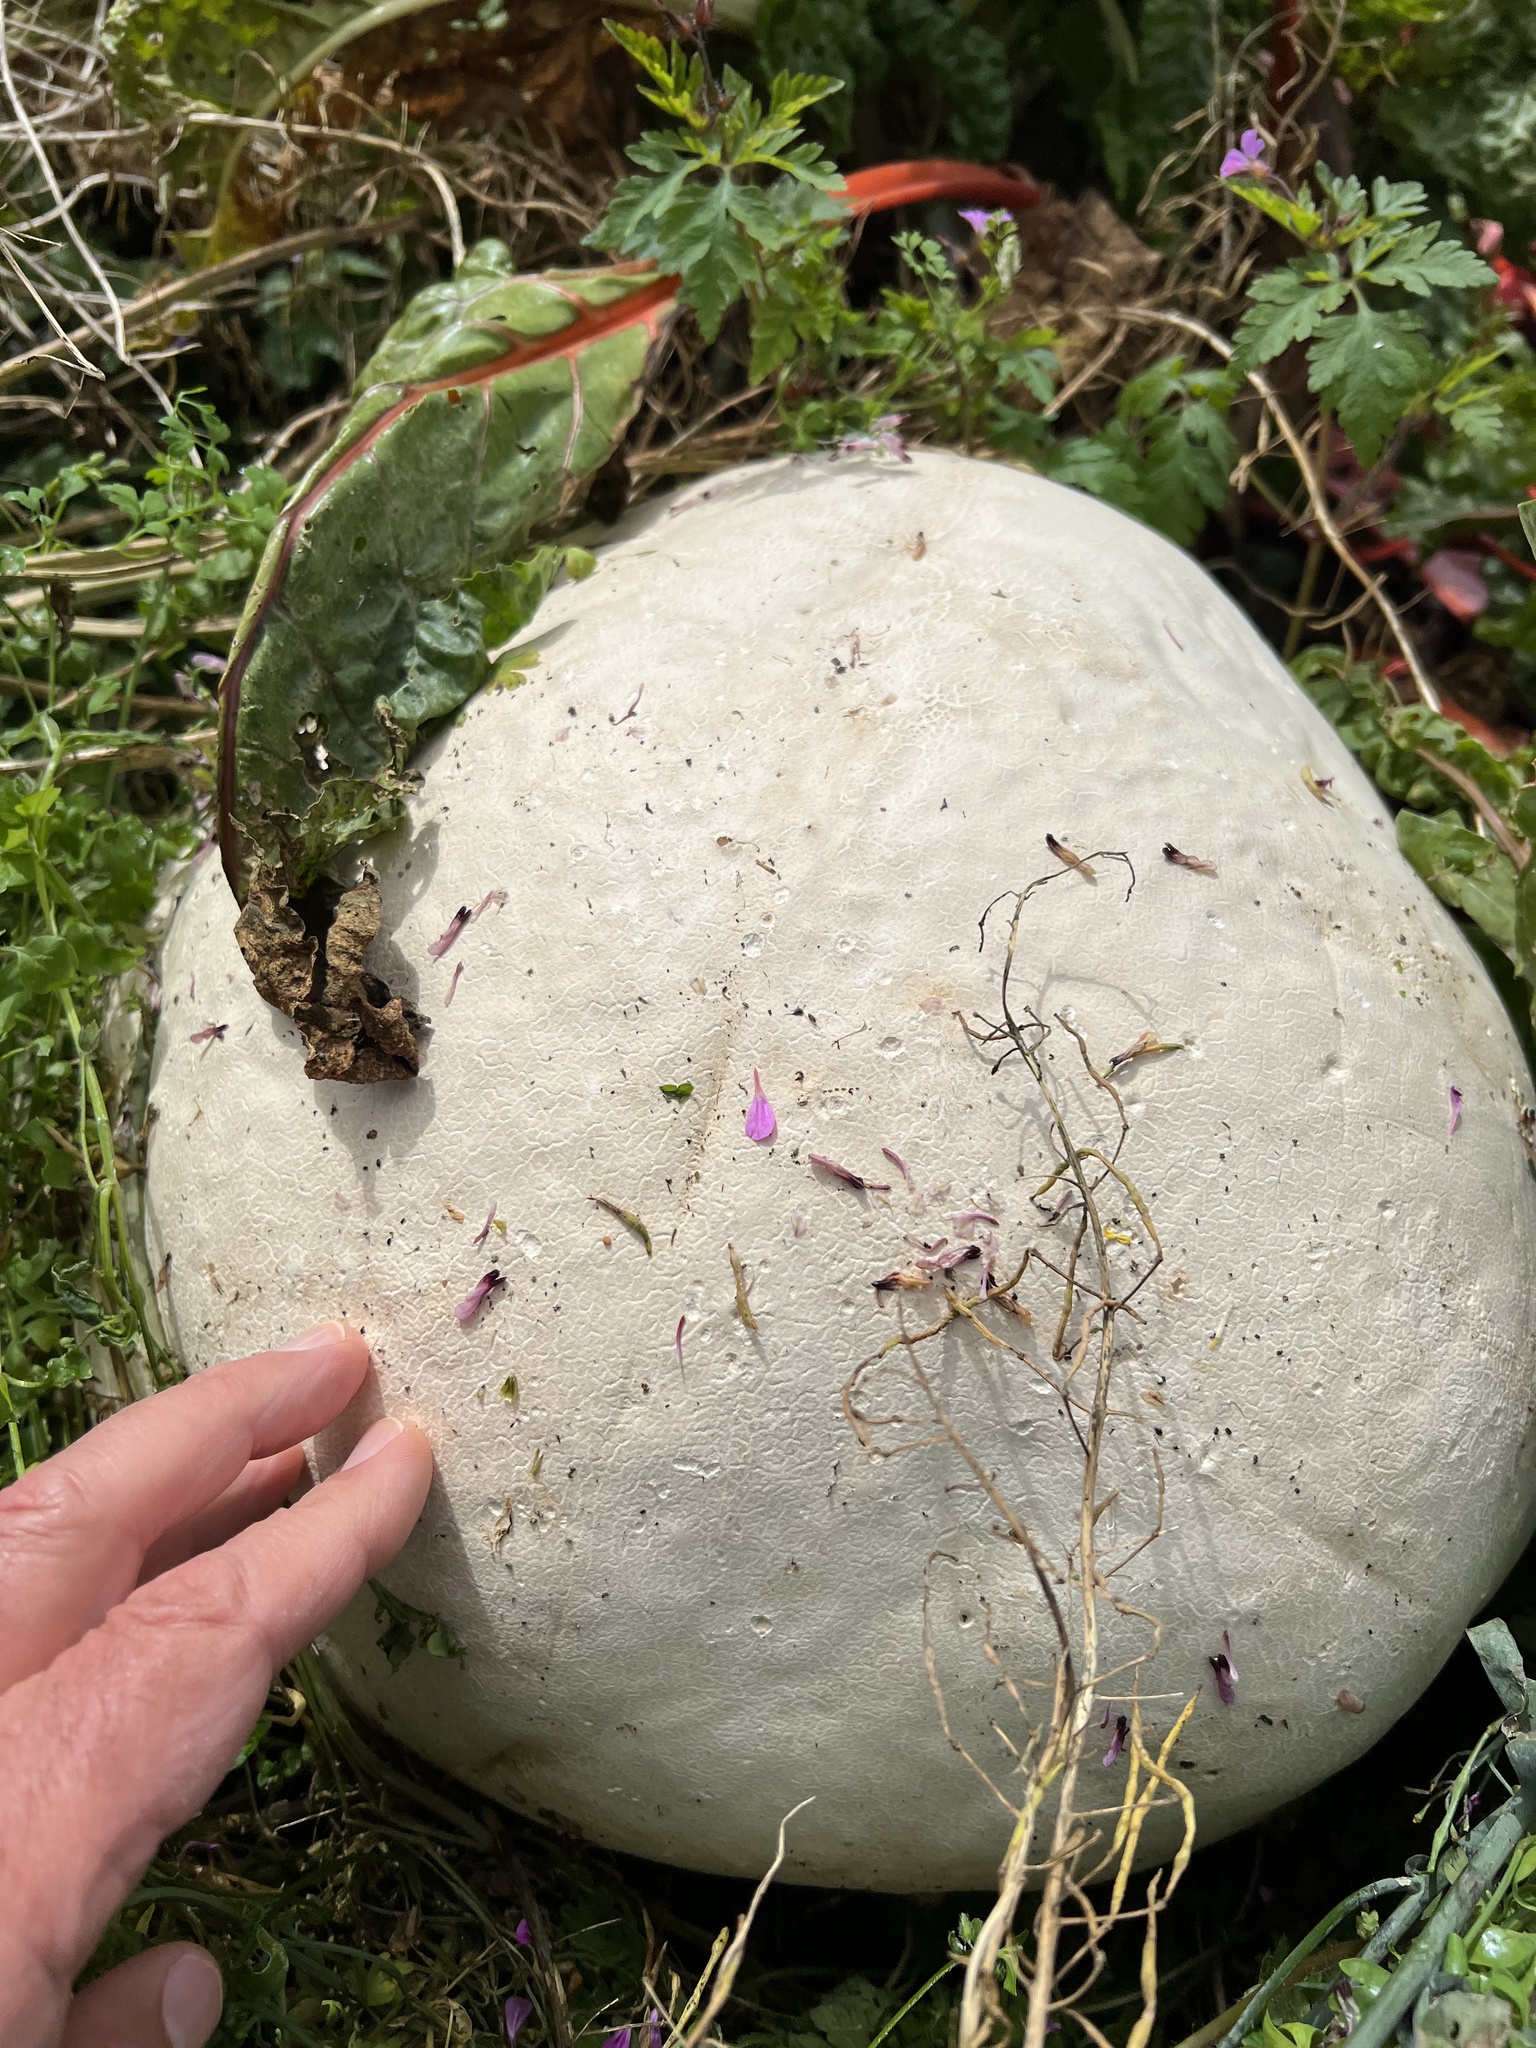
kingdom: Fungi
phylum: Basidiomycota
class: Agaricomycetes
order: Agaricales
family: Lycoperdaceae
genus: Calvatia
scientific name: Calvatia gigantea
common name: Giant puffball
